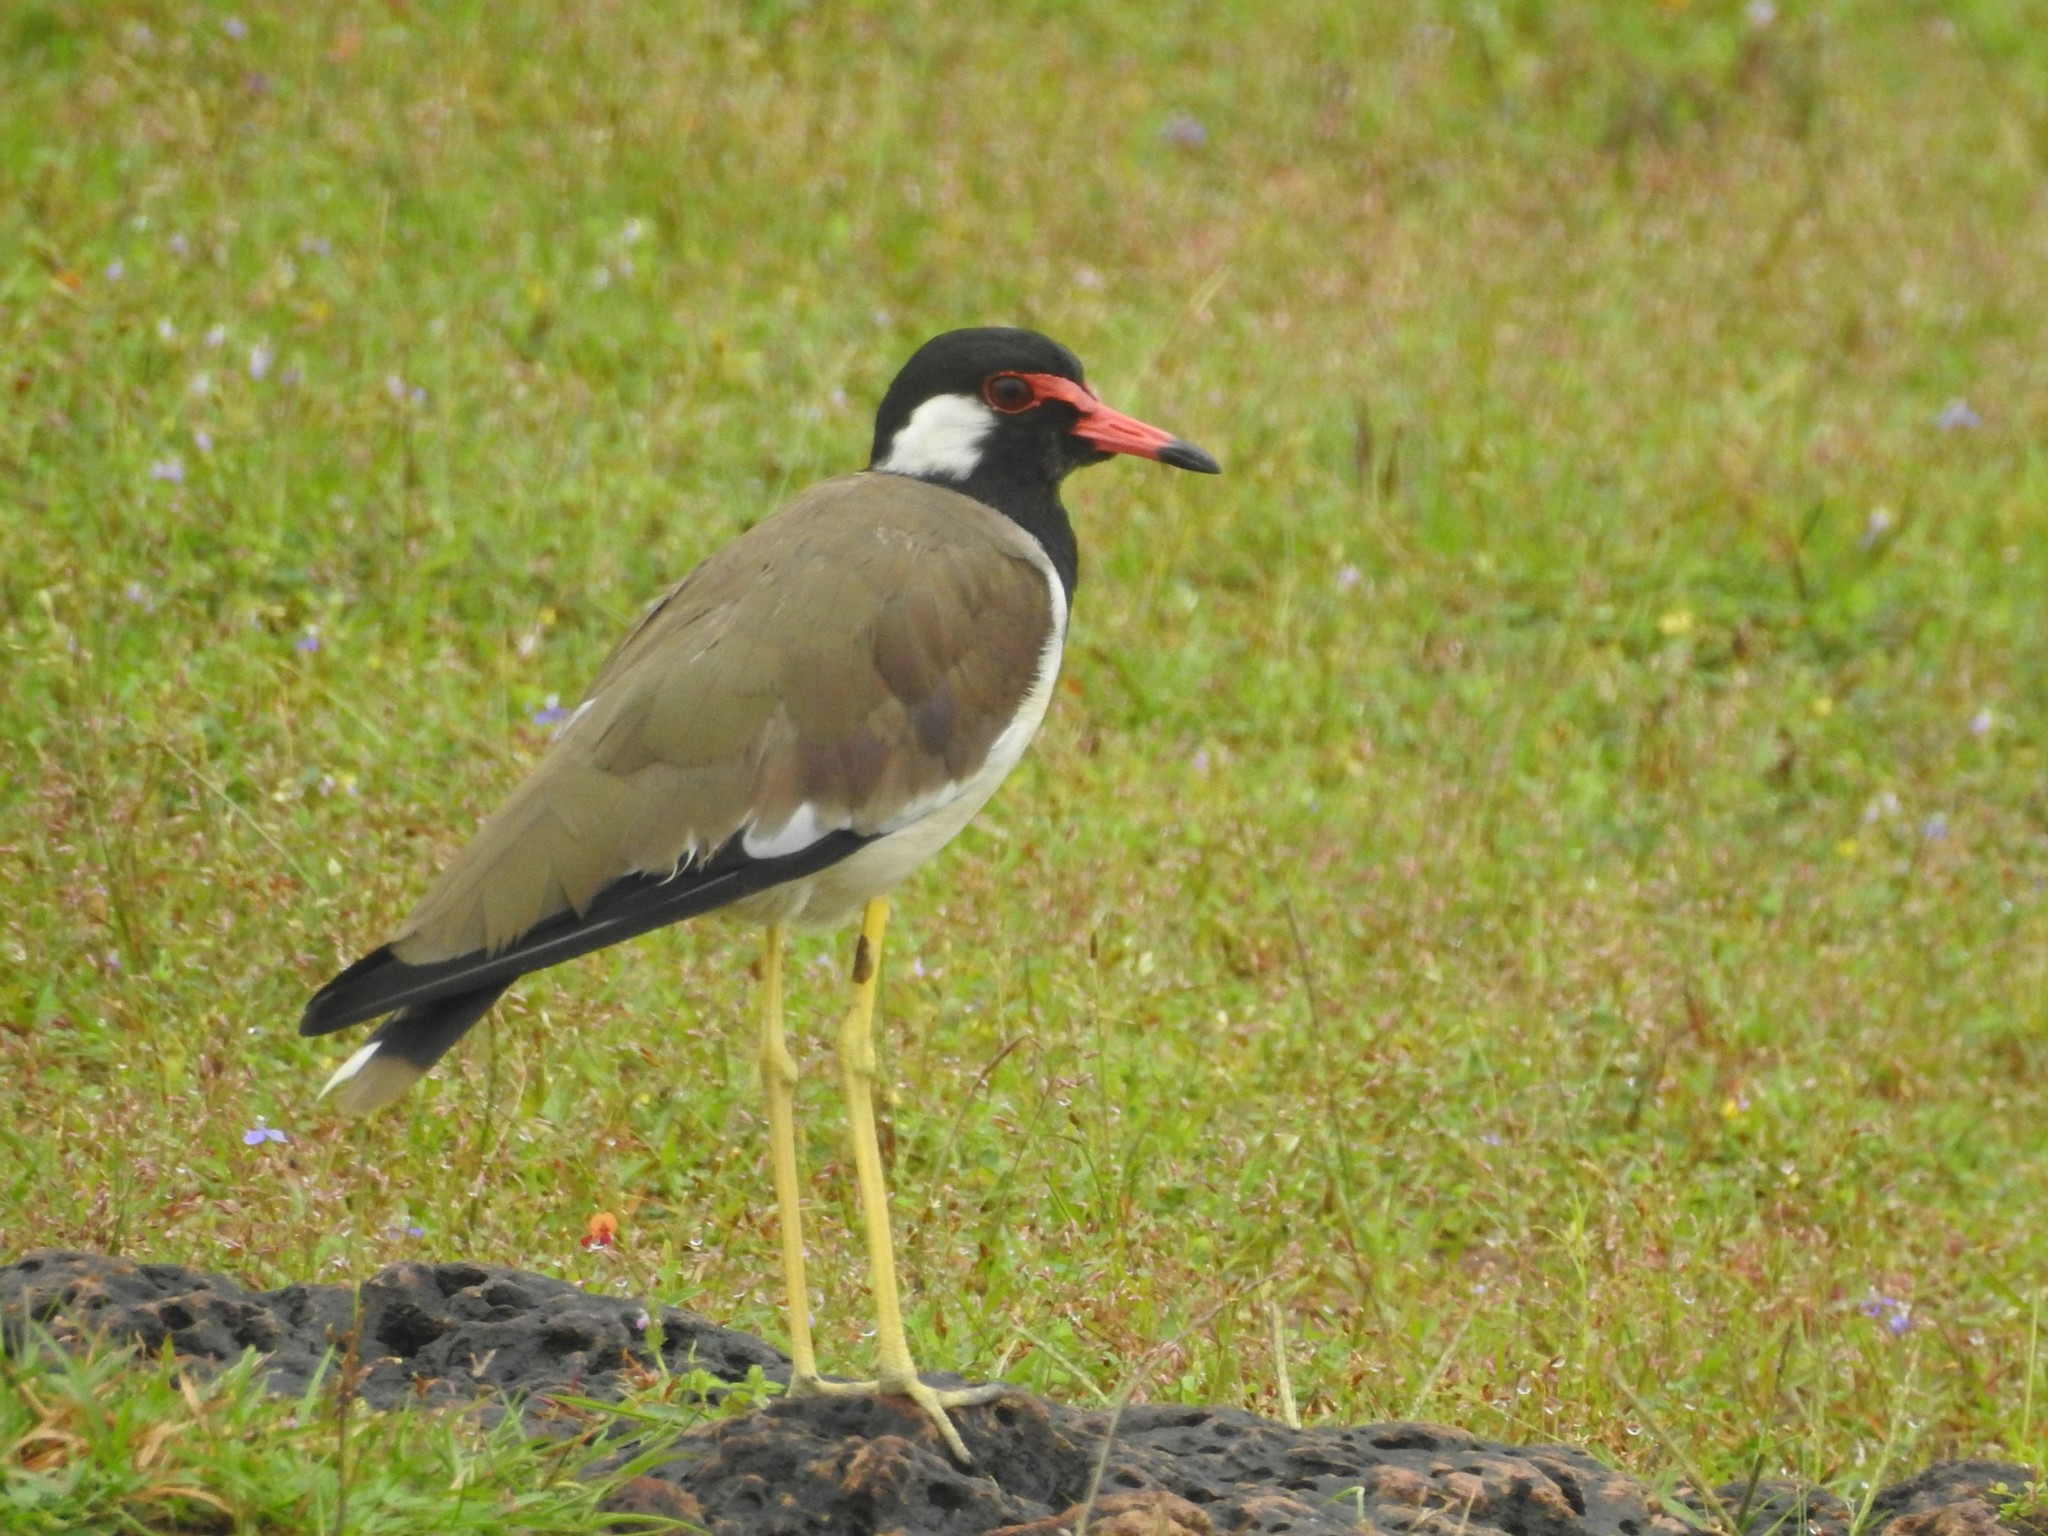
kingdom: Animalia
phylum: Chordata
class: Aves
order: Charadriiformes
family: Charadriidae
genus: Vanellus
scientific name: Vanellus indicus
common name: Red-wattled lapwing
